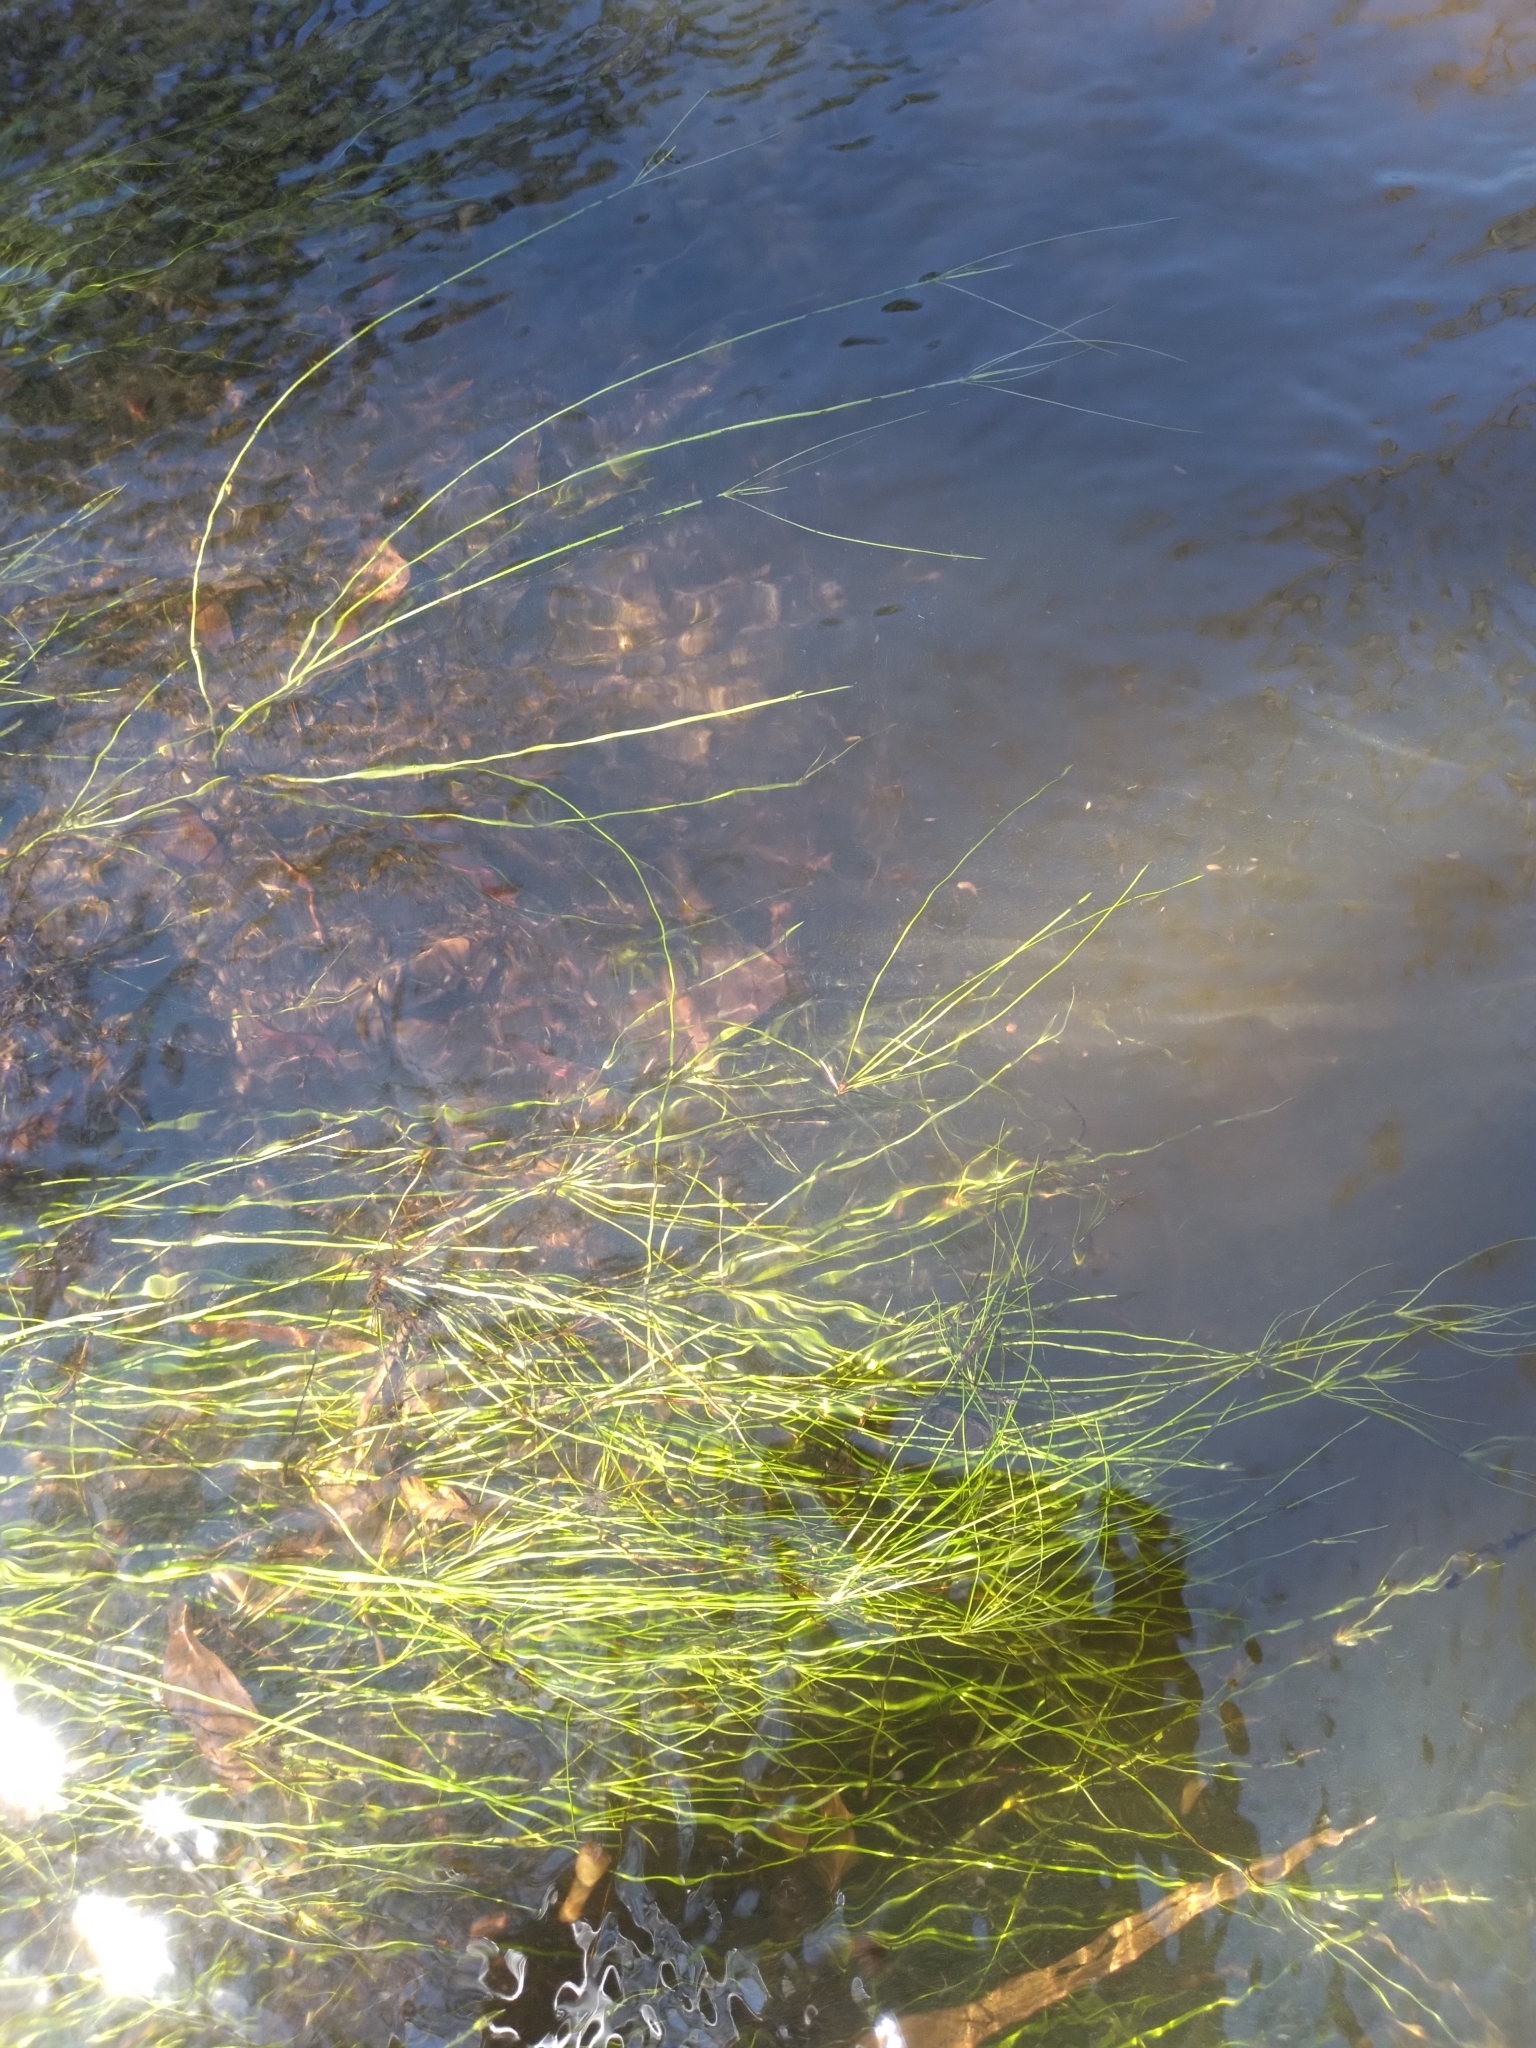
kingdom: Plantae
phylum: Tracheophyta
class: Liliopsida
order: Poales
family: Cyperaceae
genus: Eleocharis
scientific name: Eleocharis vivipara
